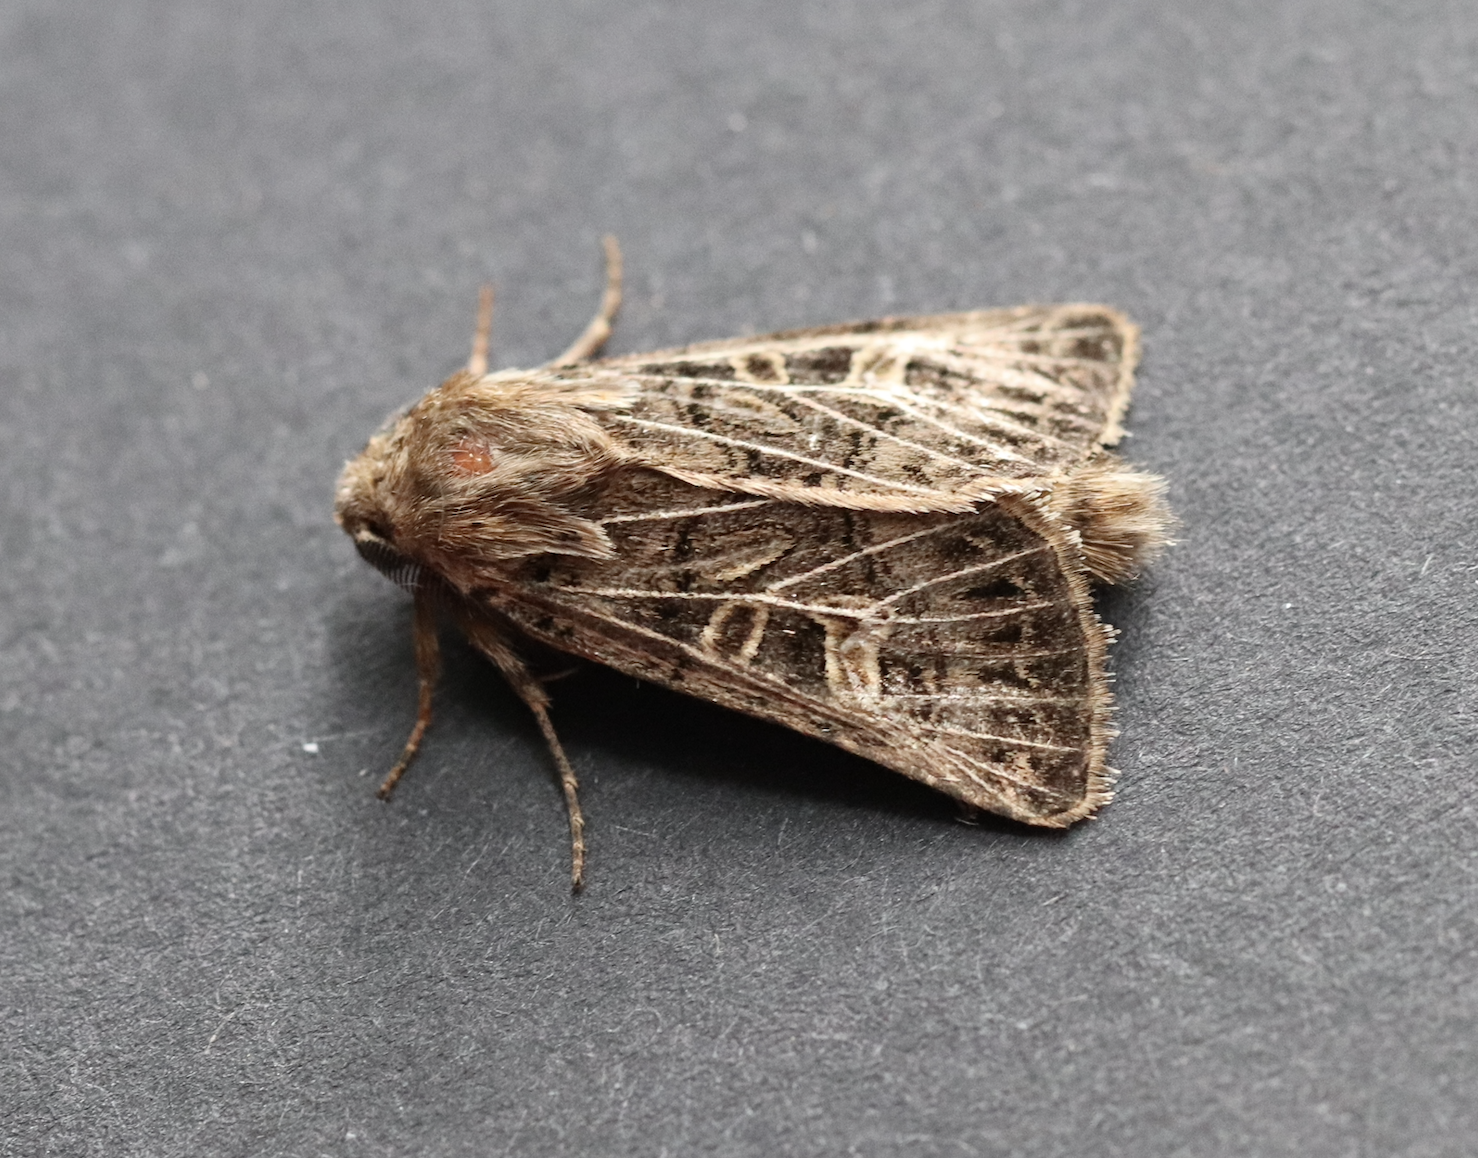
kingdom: Animalia
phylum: Arthropoda
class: Insecta
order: Lepidoptera
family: Noctuidae
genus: Tholera
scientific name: Tholera decimalis
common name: Feathered gothic
